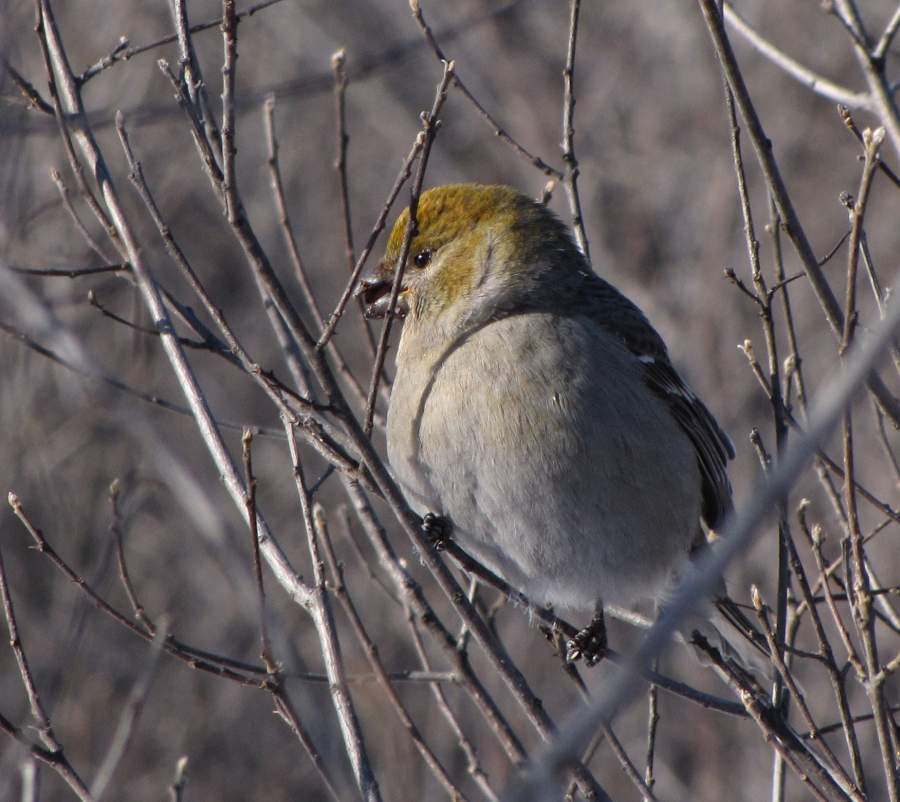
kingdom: Animalia
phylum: Chordata
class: Aves
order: Passeriformes
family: Fringillidae
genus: Pinicola
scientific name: Pinicola enucleator
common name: Pine grosbeak
